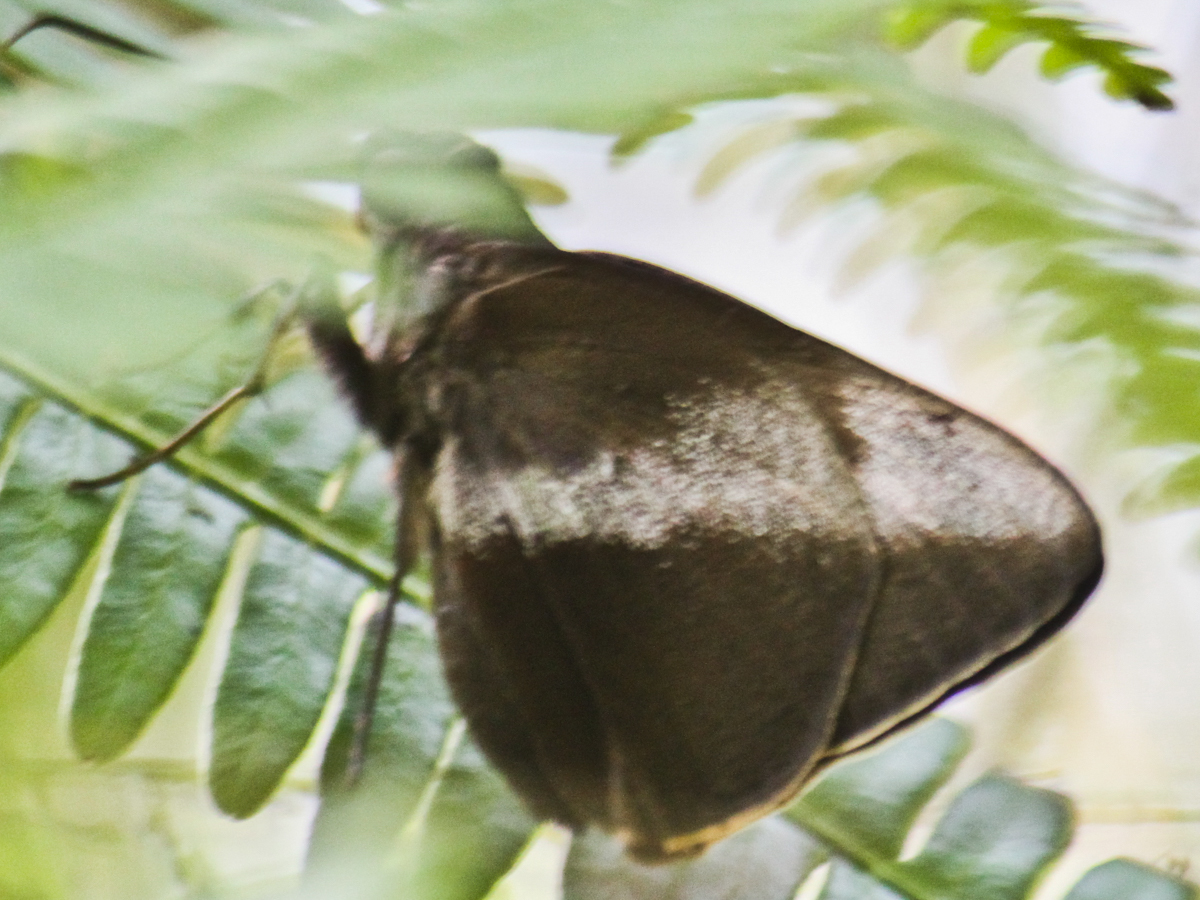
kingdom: Animalia
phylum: Arthropoda
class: Insecta
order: Lepidoptera
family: Hesperiidae
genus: Gangara
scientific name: Gangara lebadea
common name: Banded redeye
